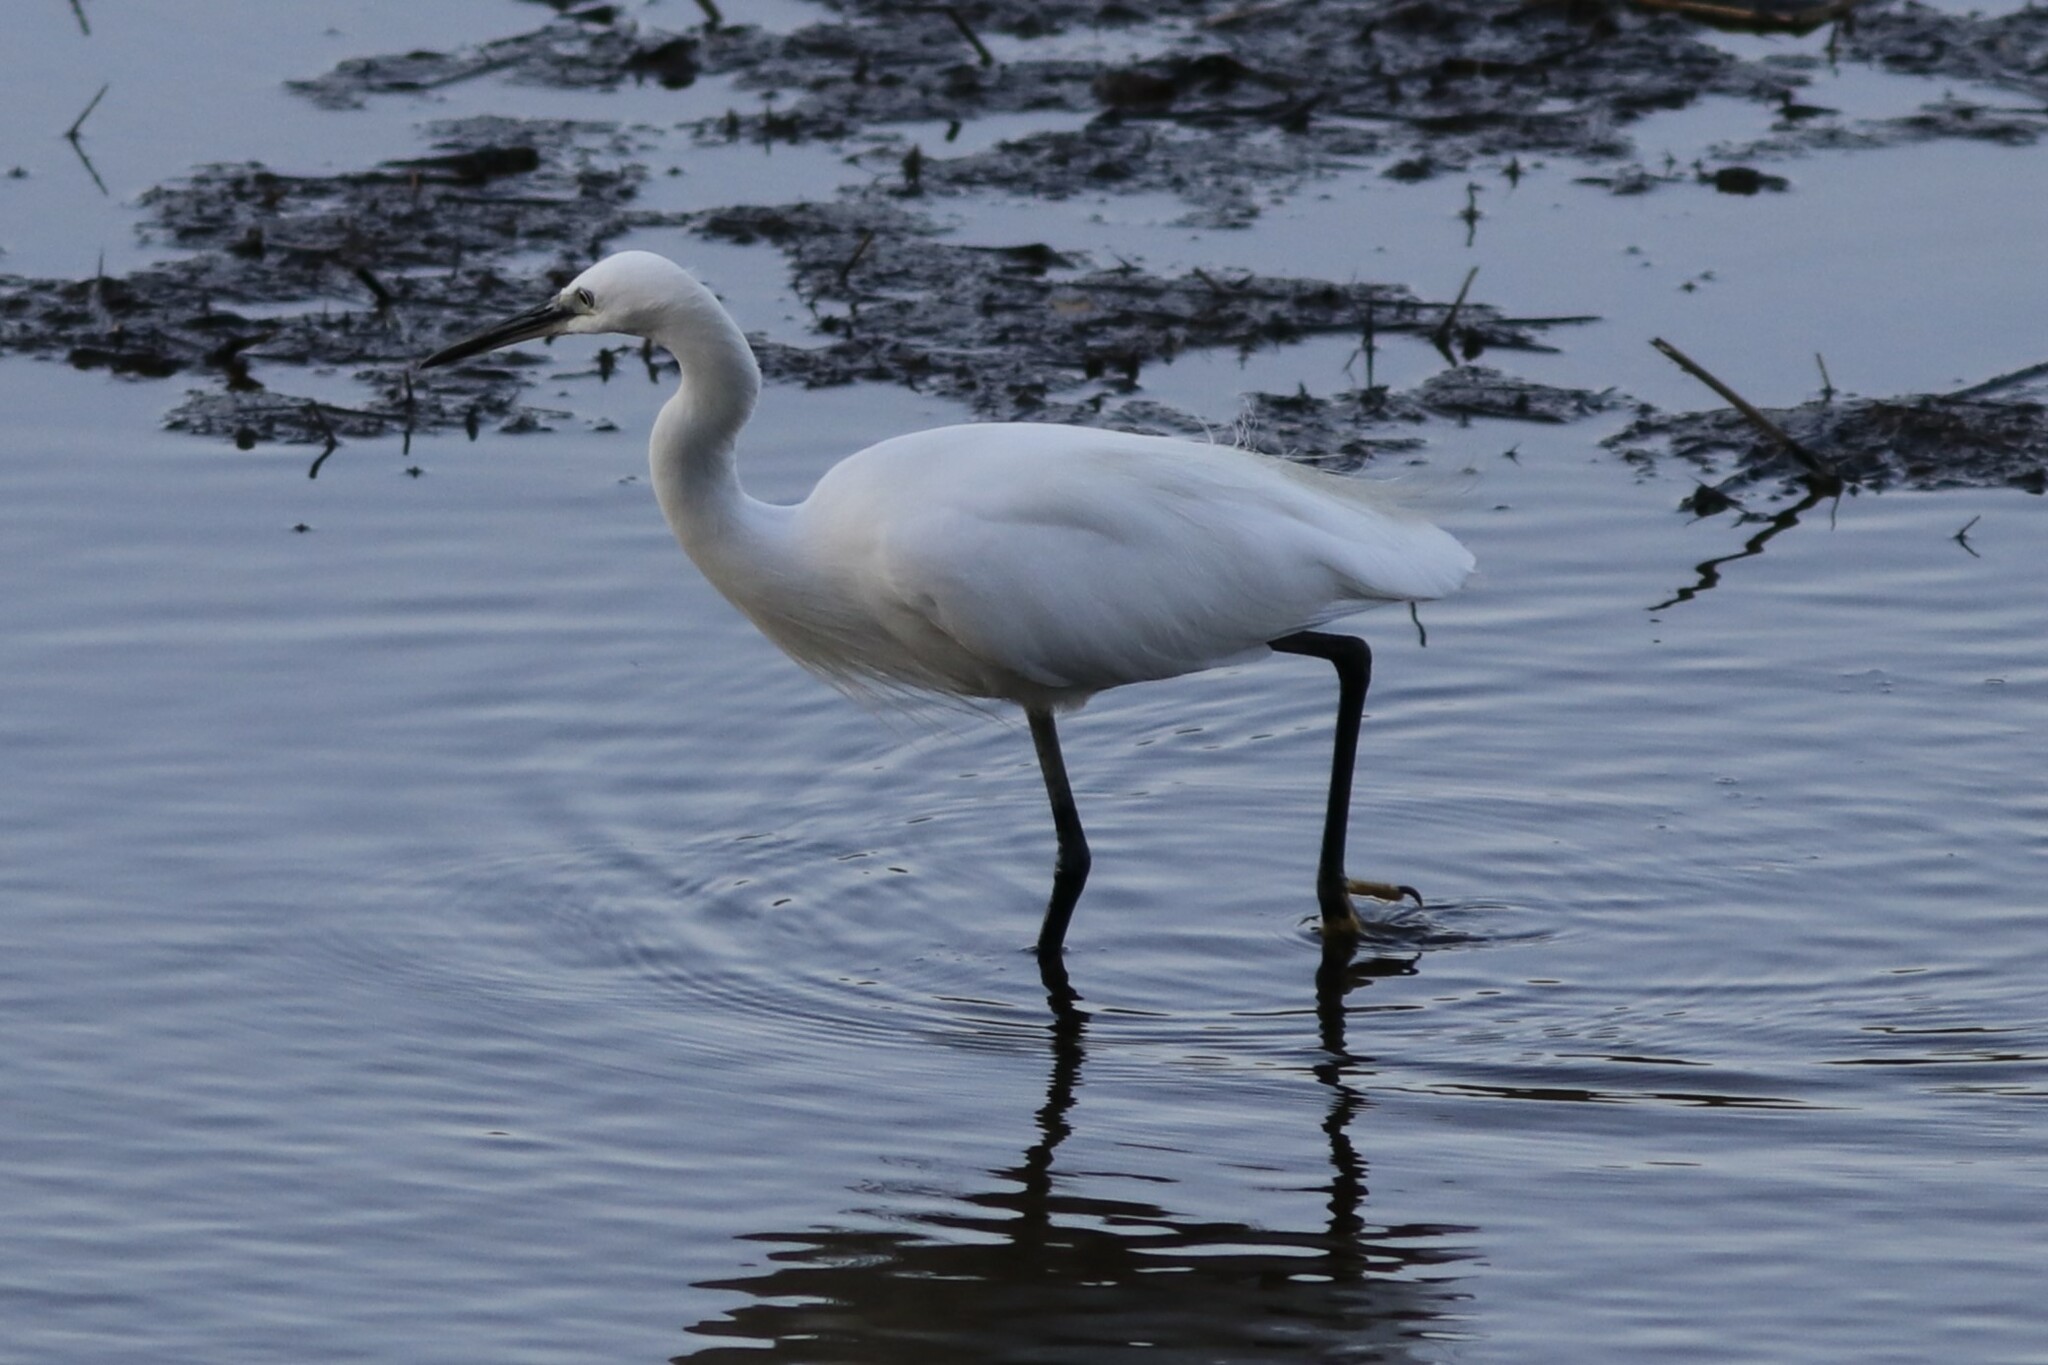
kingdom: Animalia
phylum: Chordata
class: Aves
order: Pelecaniformes
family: Ardeidae
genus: Egretta
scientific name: Egretta garzetta
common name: Little egret
